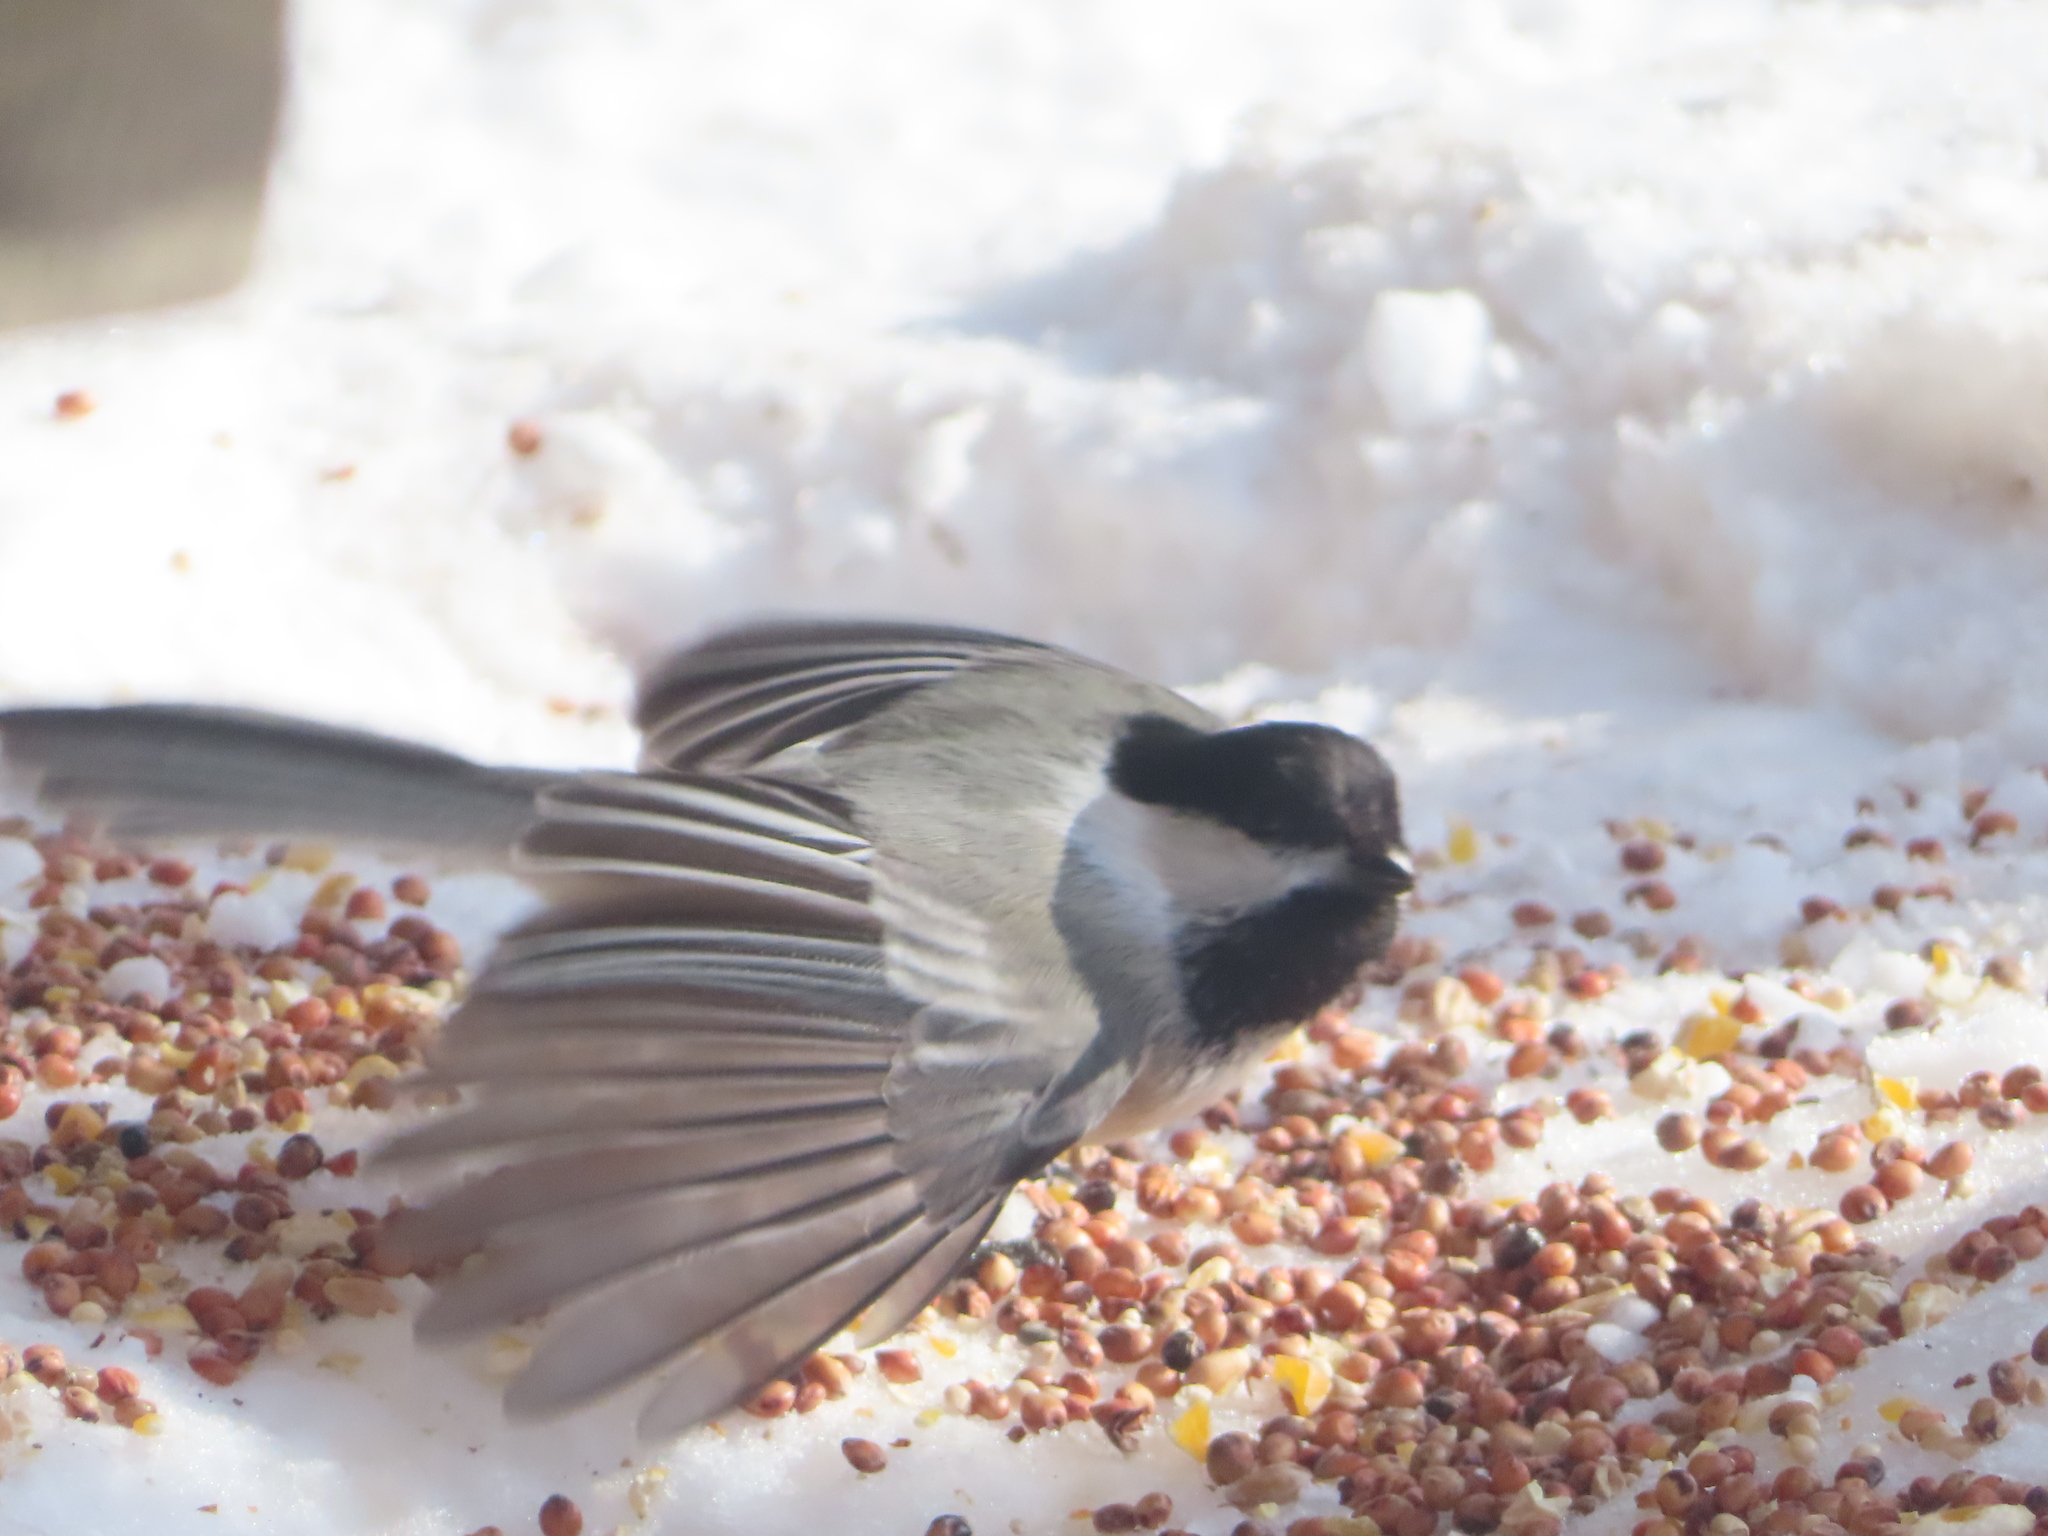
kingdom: Animalia
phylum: Chordata
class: Aves
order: Passeriformes
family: Paridae
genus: Poecile
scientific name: Poecile atricapillus
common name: Black-capped chickadee
